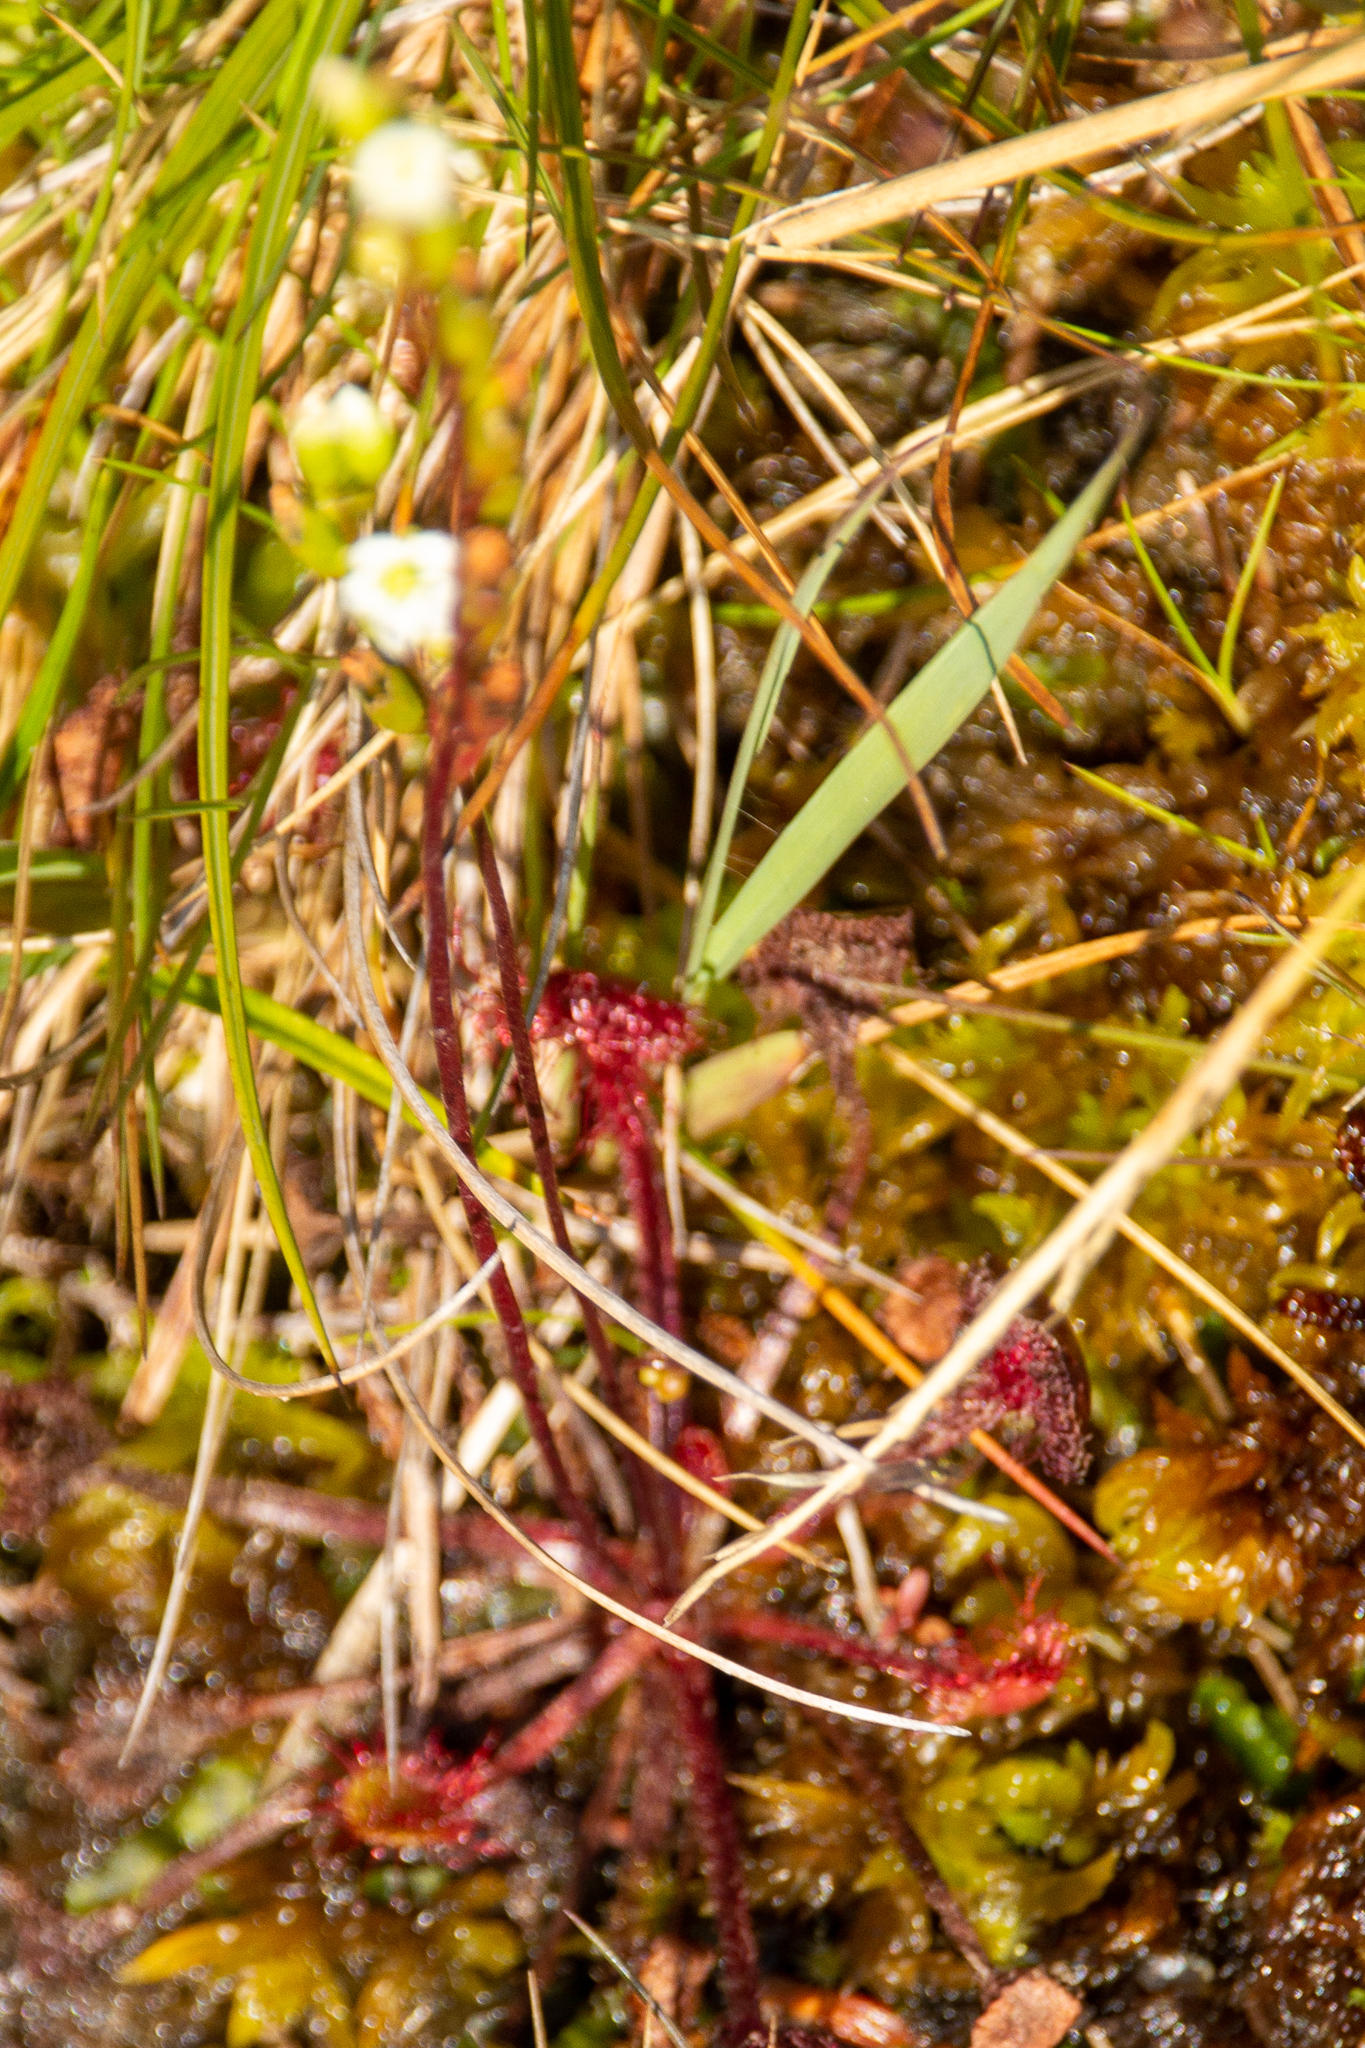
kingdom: Plantae
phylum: Tracheophyta
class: Magnoliopsida
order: Caryophyllales
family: Droseraceae
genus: Drosera
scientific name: Drosera rotundifolia
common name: Round-leaved sundew
